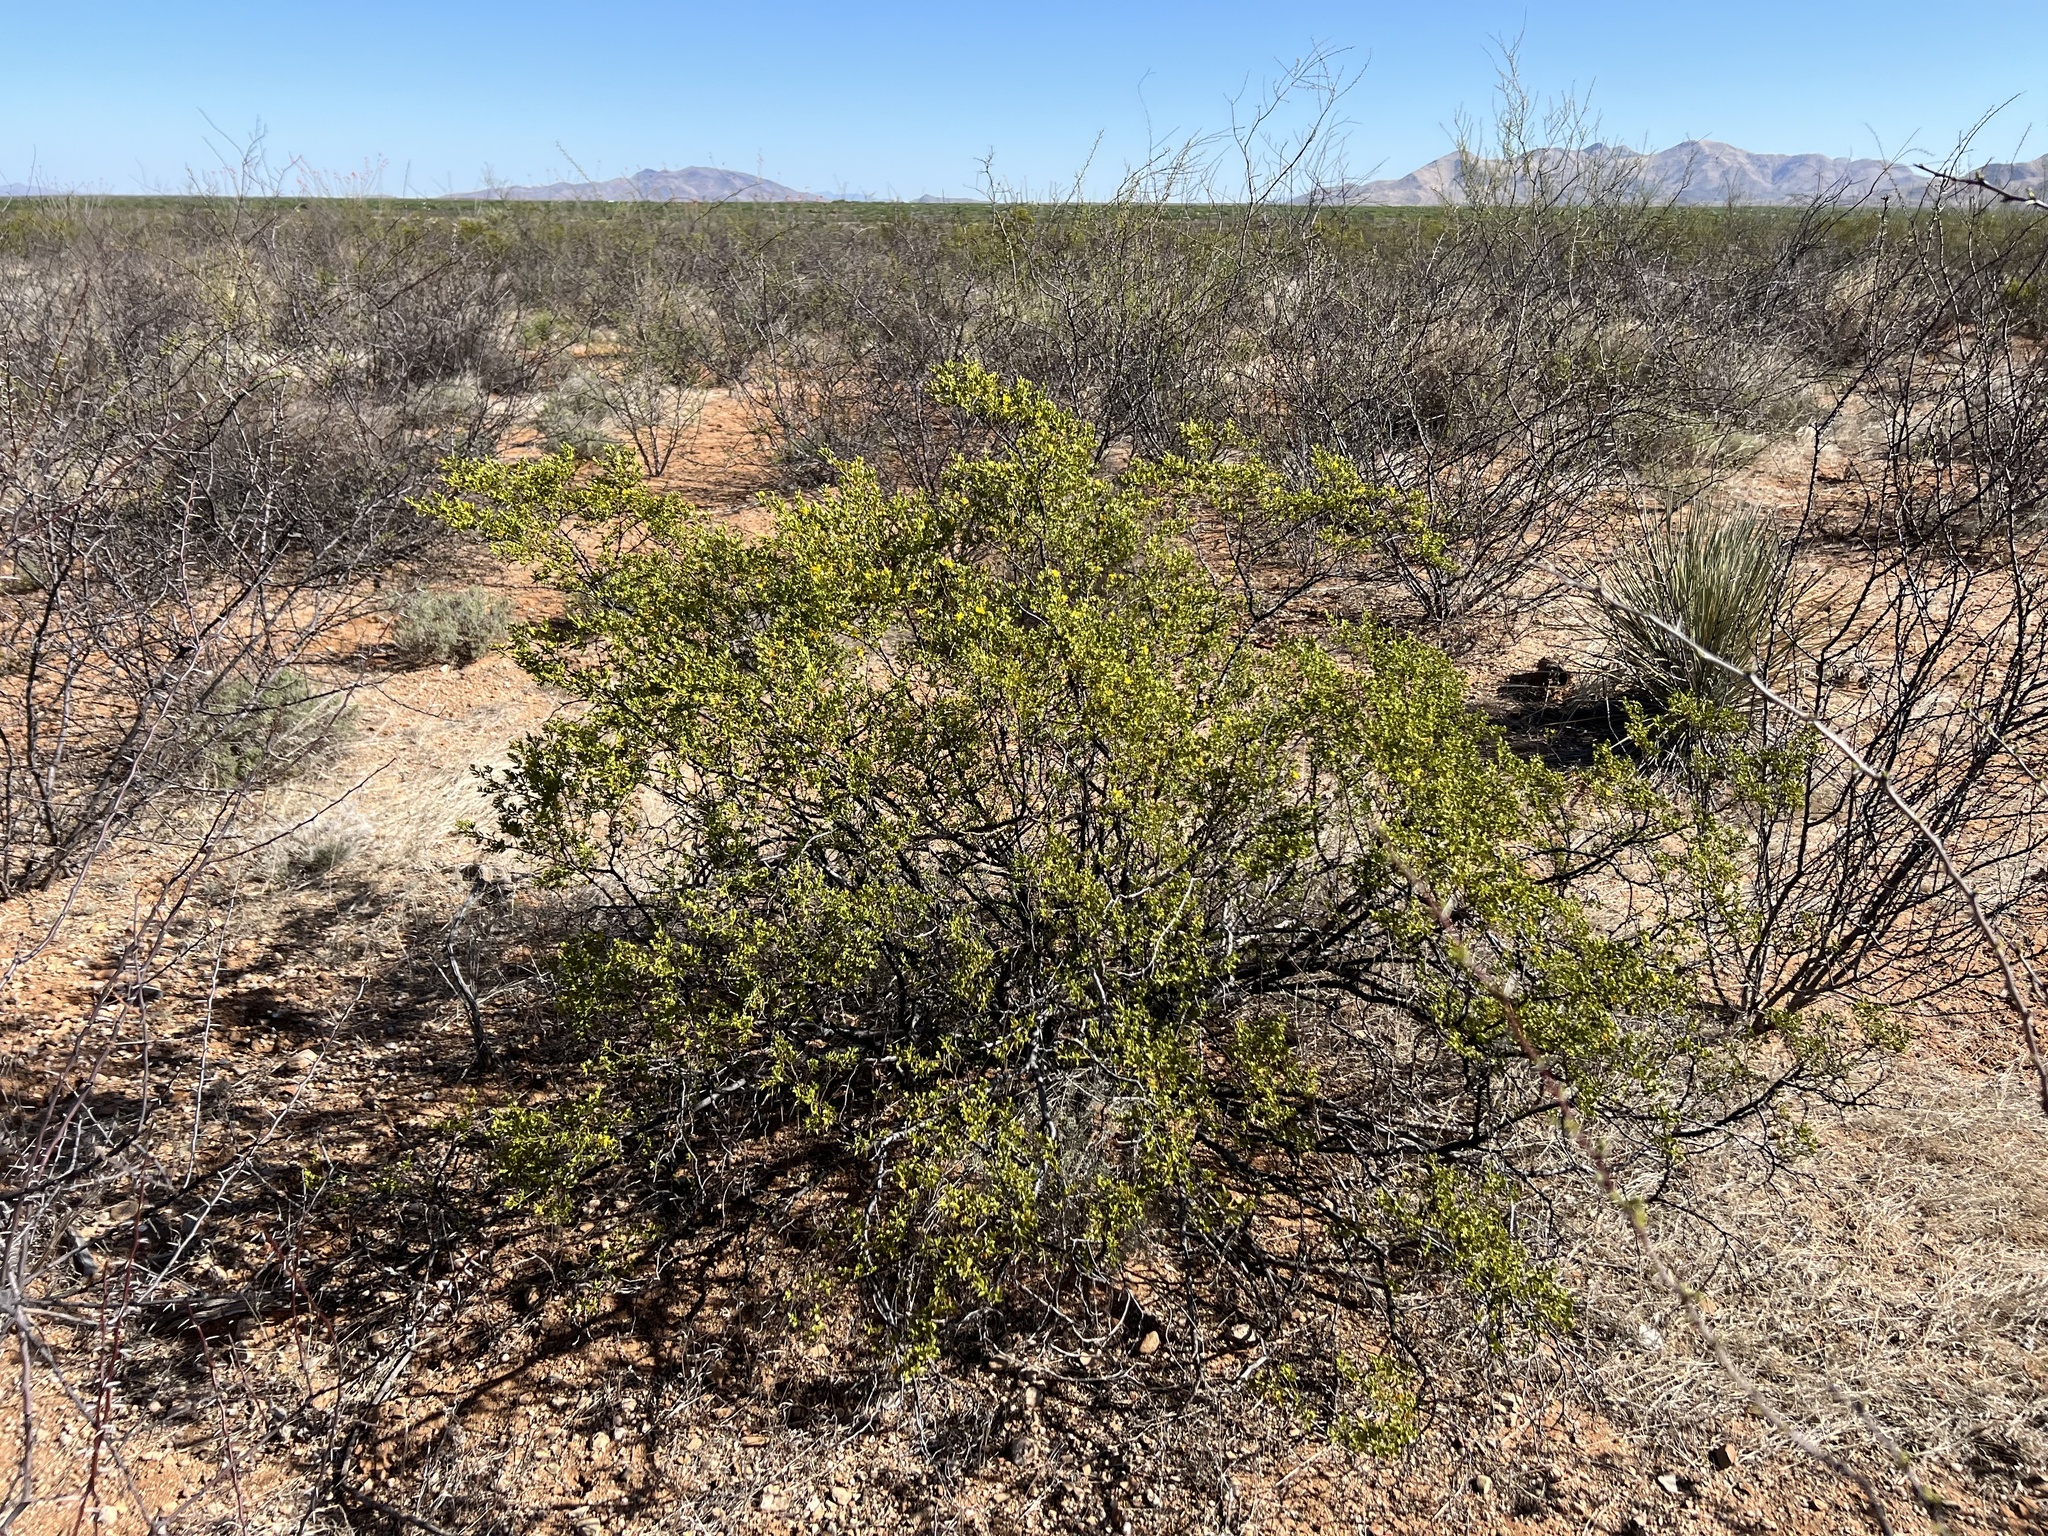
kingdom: Plantae
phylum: Tracheophyta
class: Magnoliopsida
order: Zygophyllales
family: Zygophyllaceae
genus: Larrea
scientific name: Larrea tridentata
